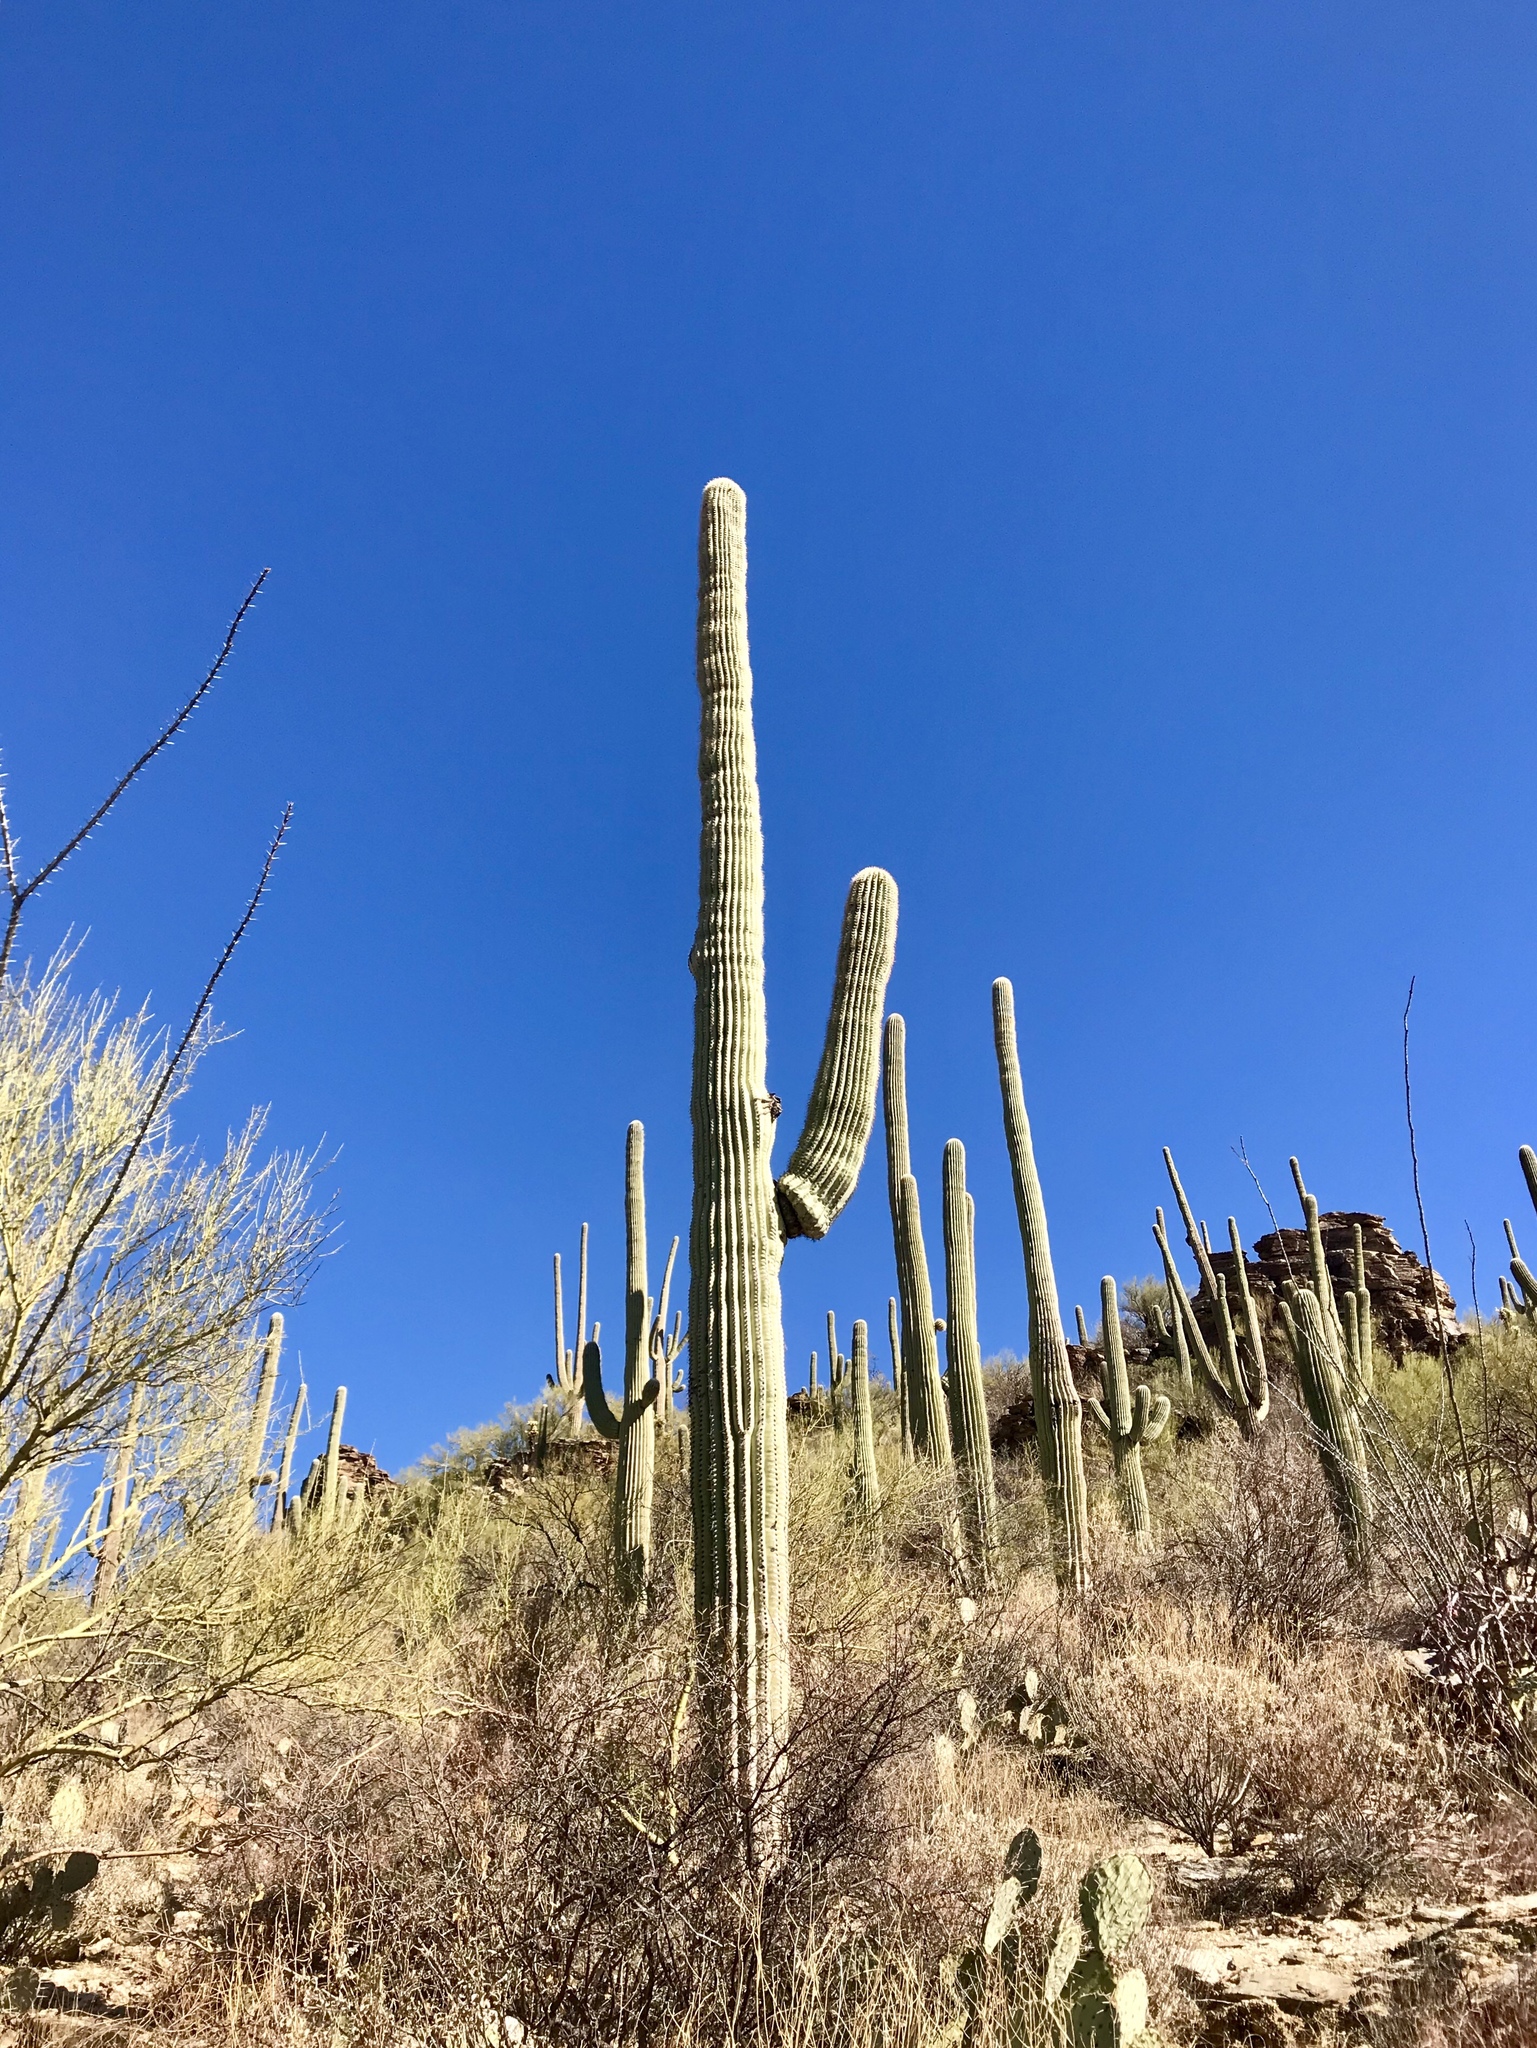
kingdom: Plantae
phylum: Tracheophyta
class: Magnoliopsida
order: Caryophyllales
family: Cactaceae
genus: Carnegiea
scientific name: Carnegiea gigantea
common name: Saguaro
